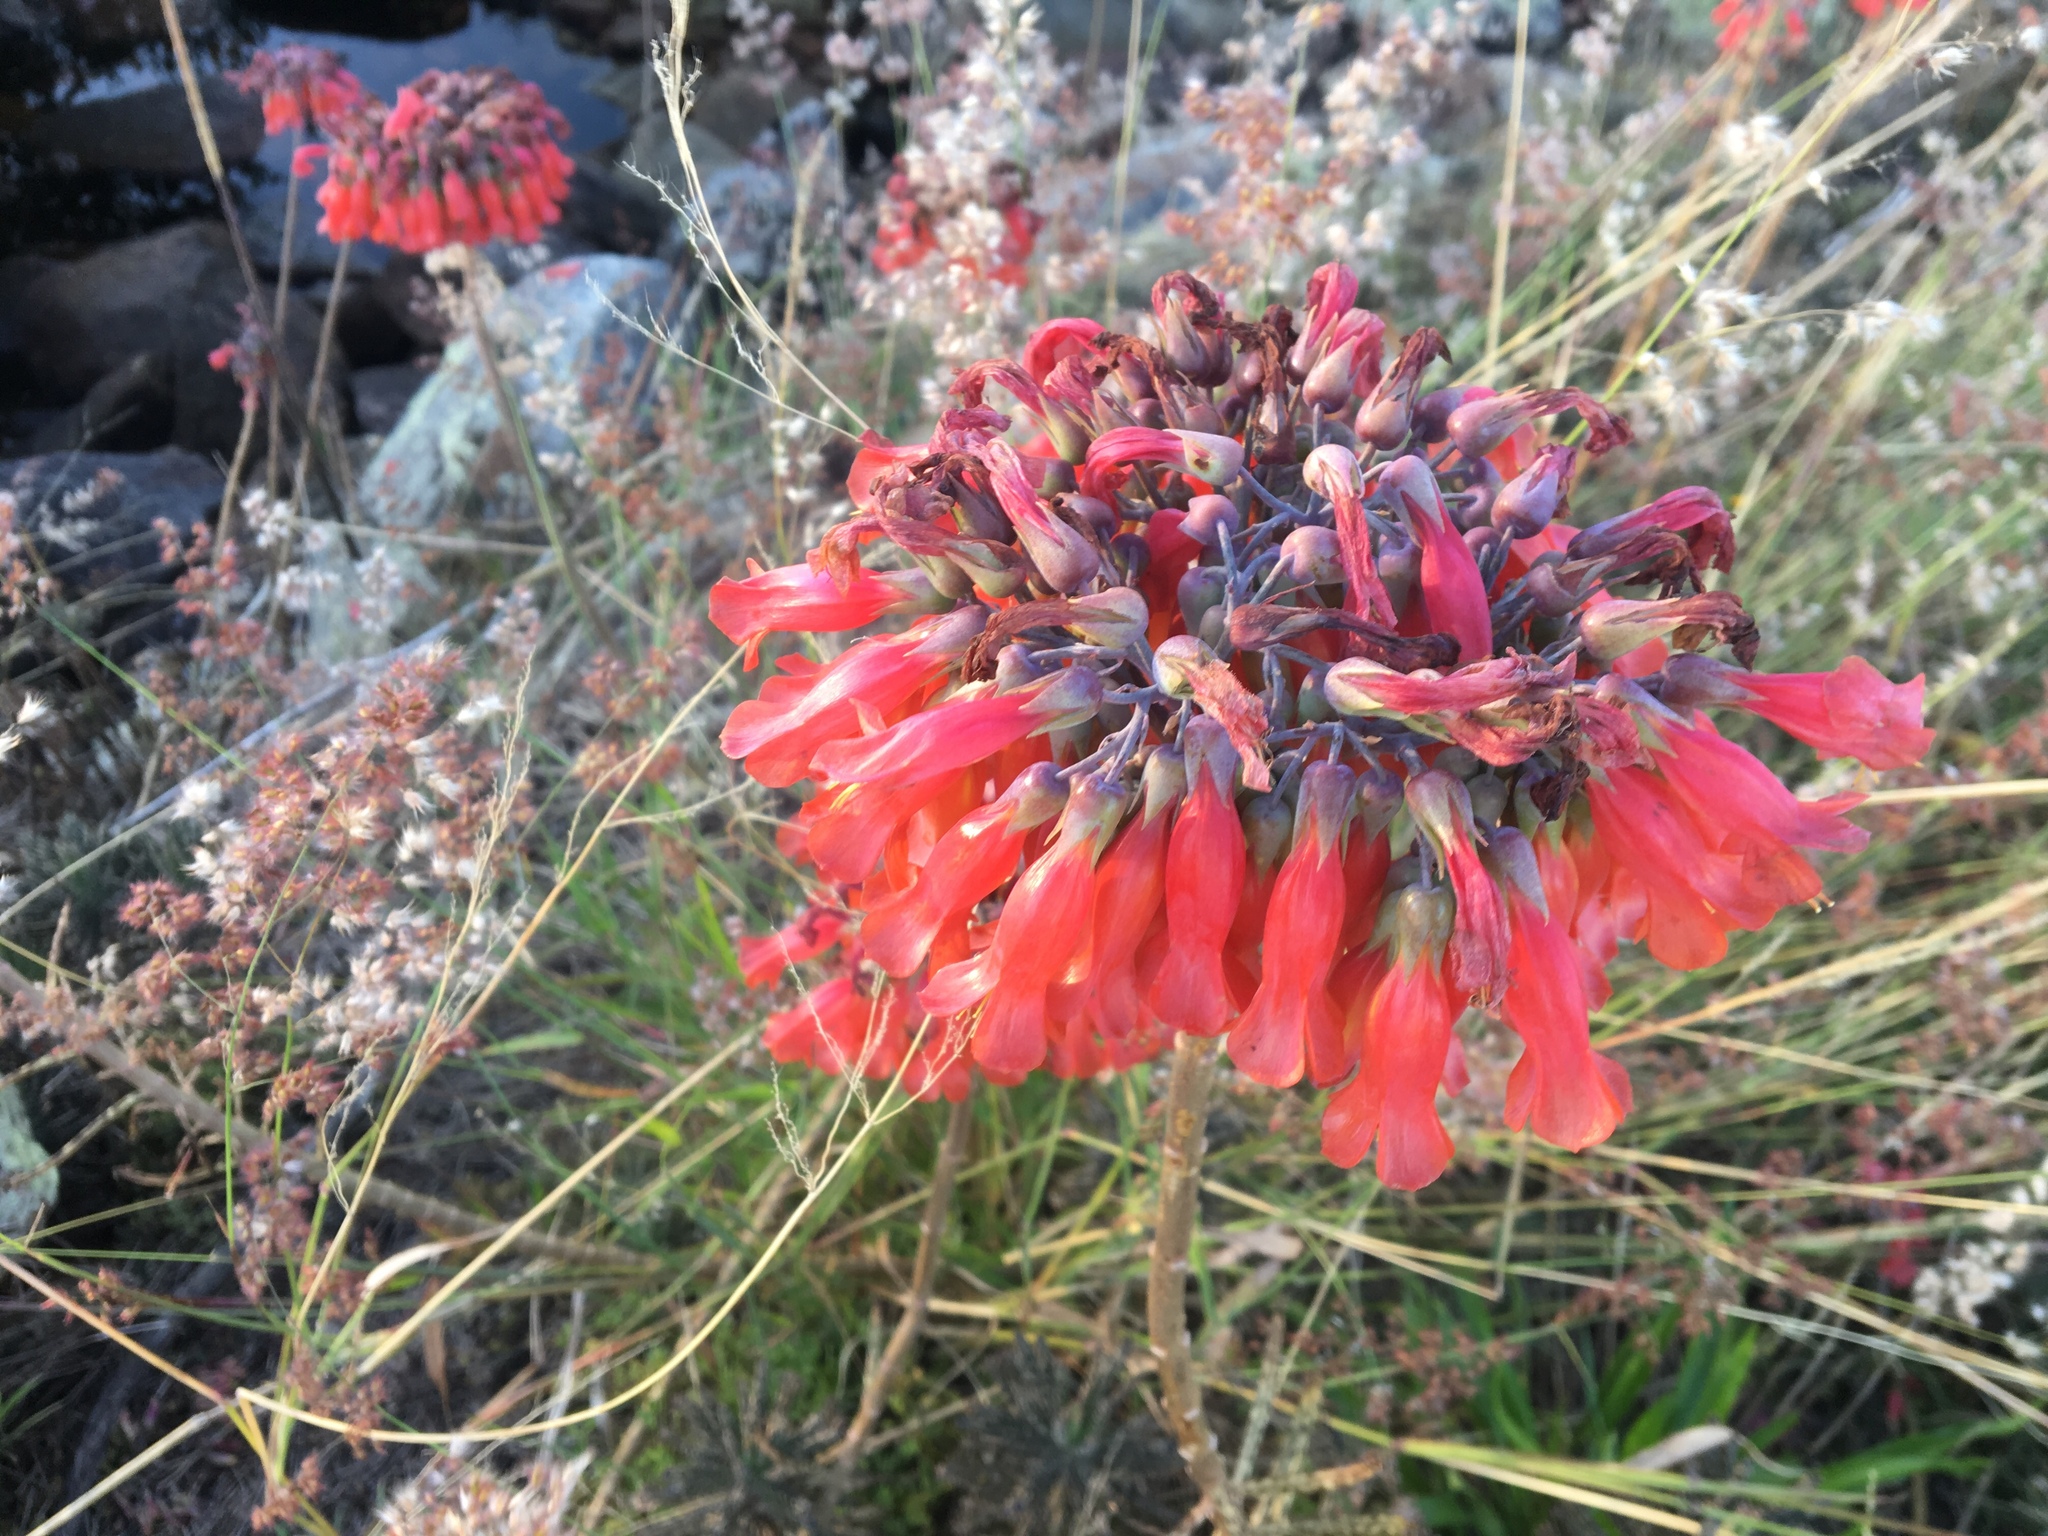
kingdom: Plantae
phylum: Tracheophyta
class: Magnoliopsida
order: Saxifragales
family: Crassulaceae
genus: Kalanchoe
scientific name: Kalanchoe delagoensis
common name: Chandelier plant
